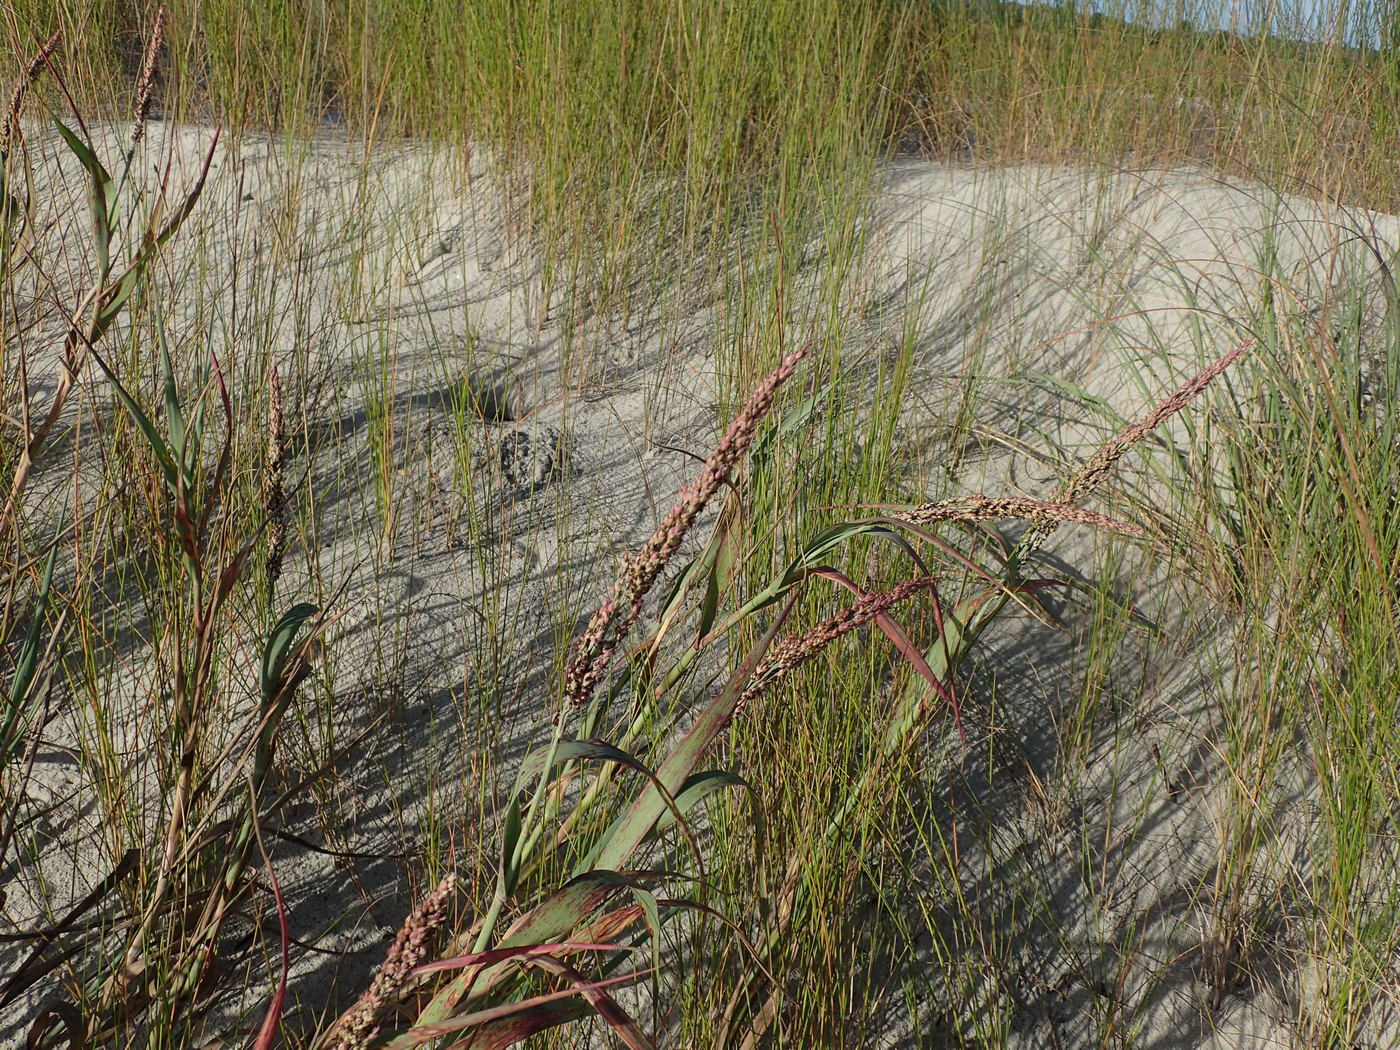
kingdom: Plantae
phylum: Tracheophyta
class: Liliopsida
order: Poales
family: Poaceae
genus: Panicum
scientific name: Panicum amarum
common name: Bitter panicum
